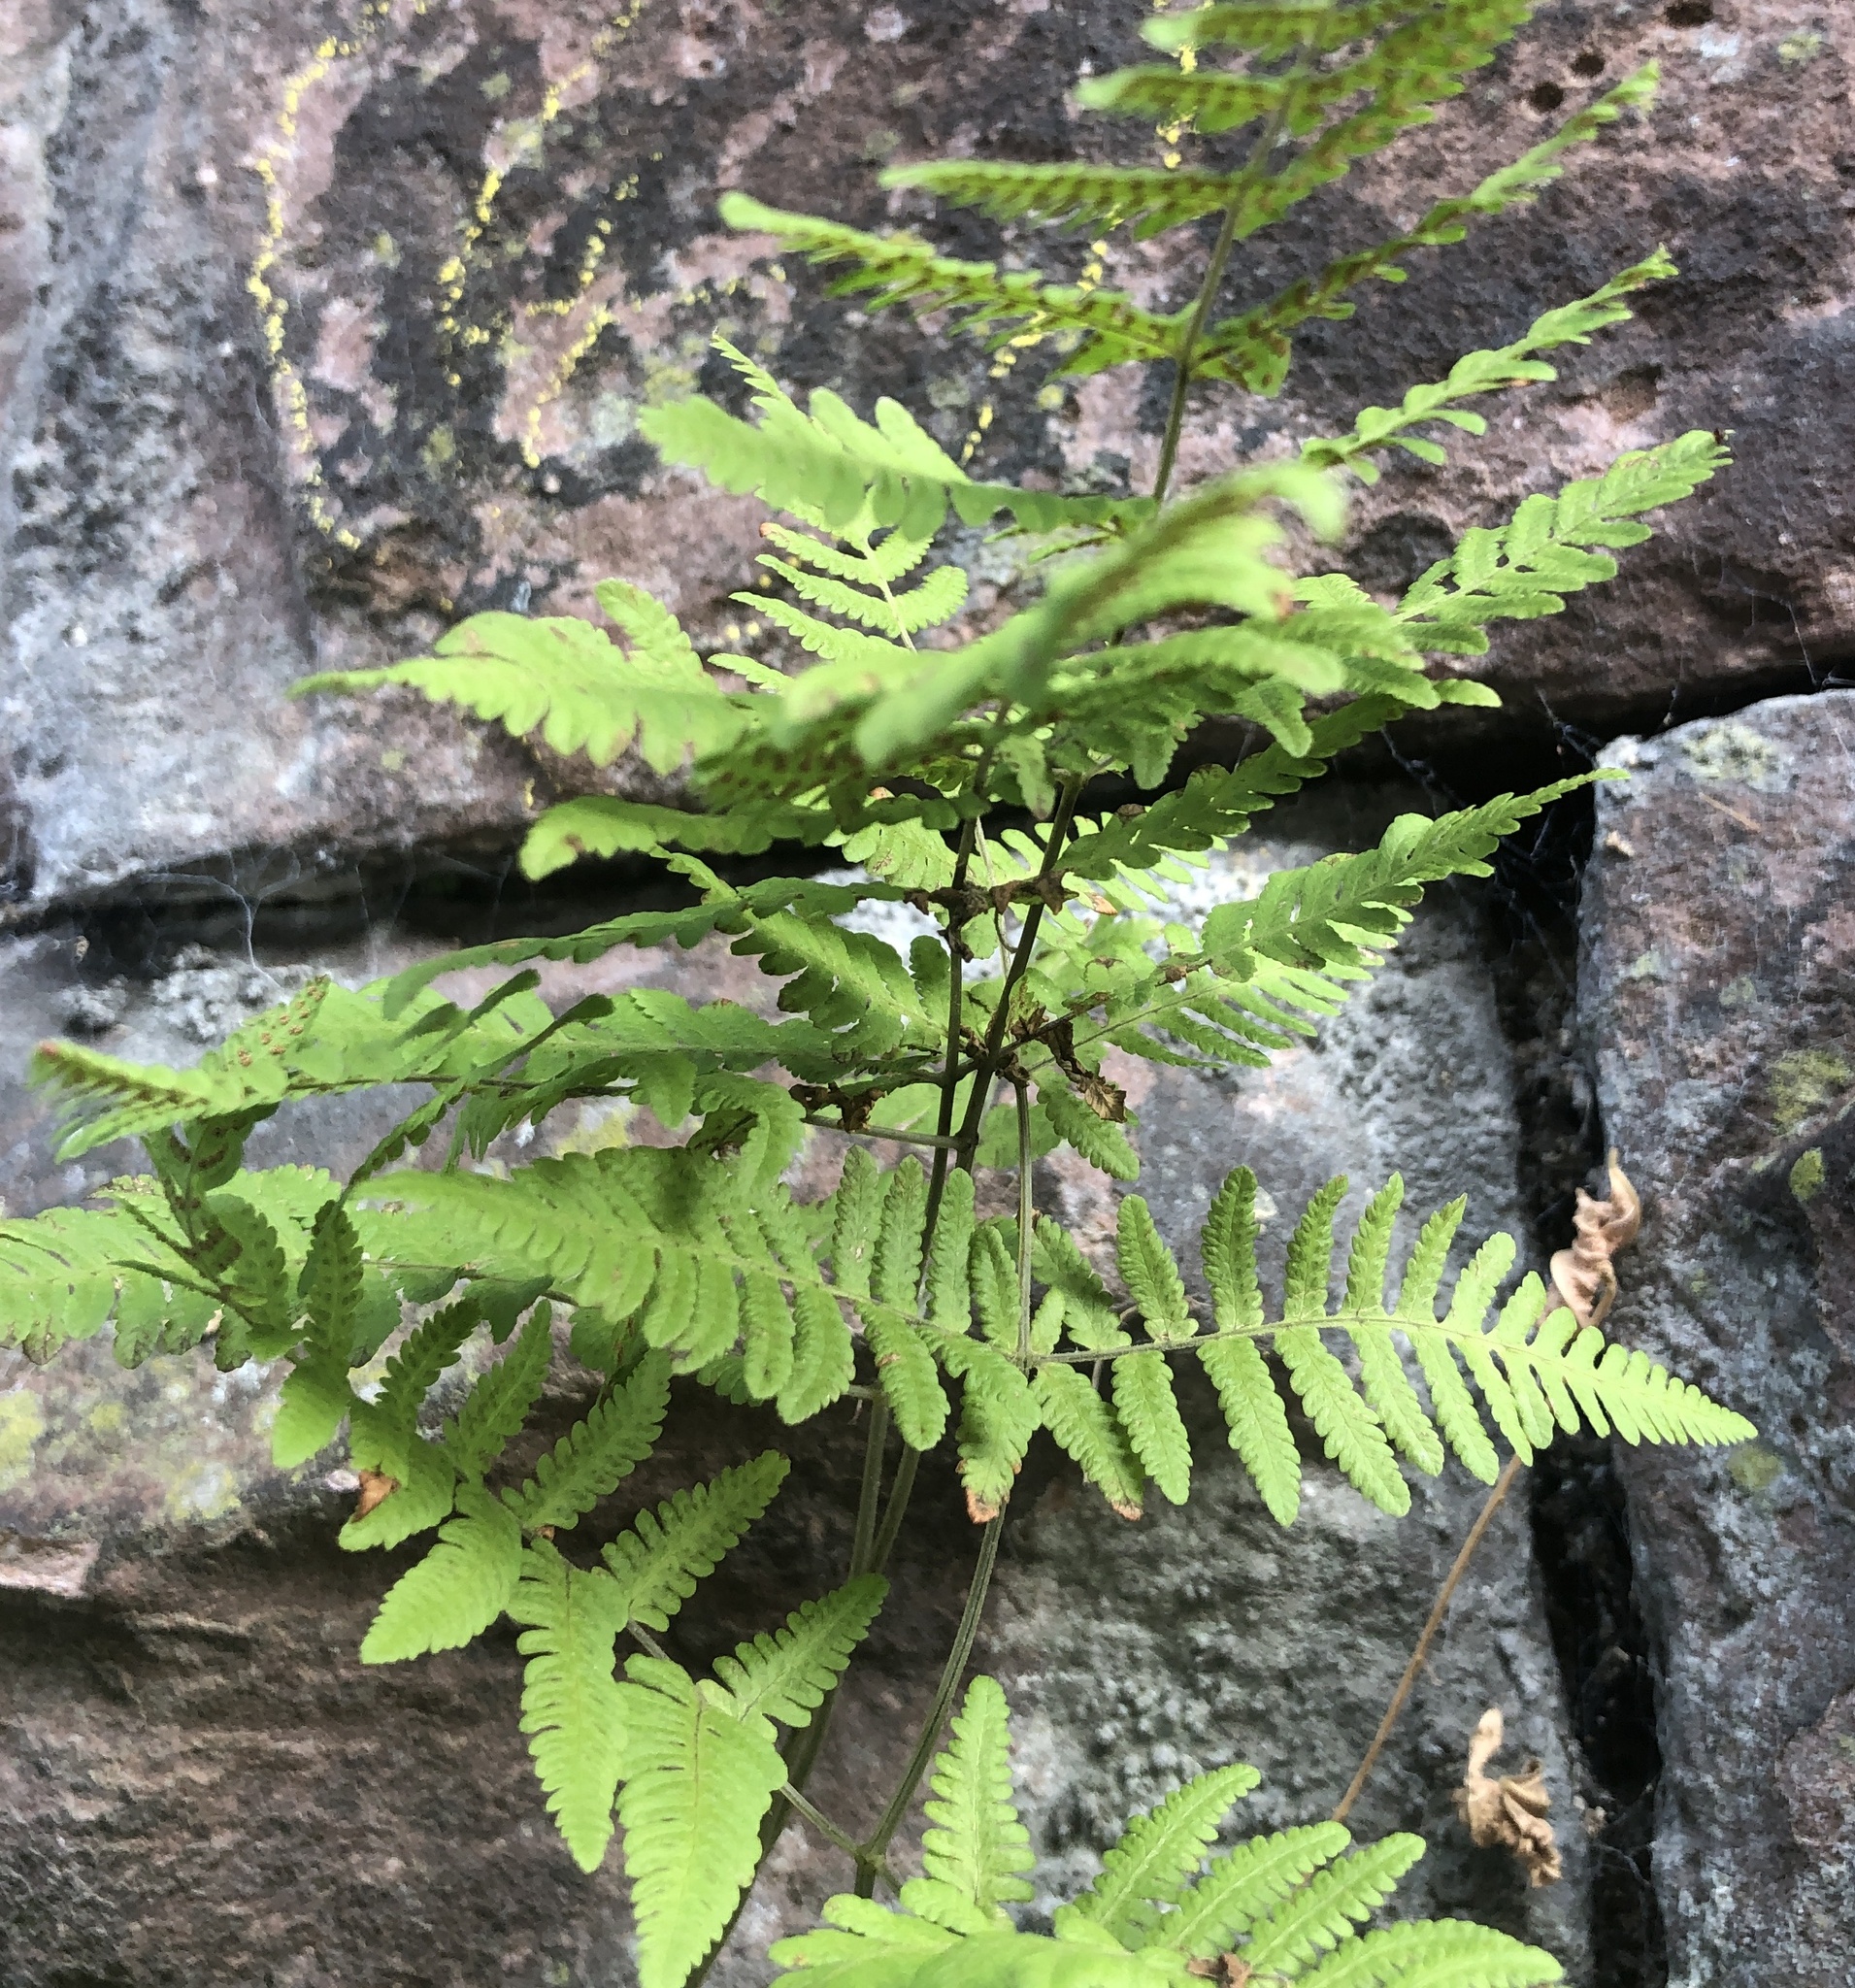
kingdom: Plantae
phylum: Tracheophyta
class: Polypodiopsida
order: Polypodiales
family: Cystopteridaceae
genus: Gymnocarpium
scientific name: Gymnocarpium robertianum
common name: Limestone fern
